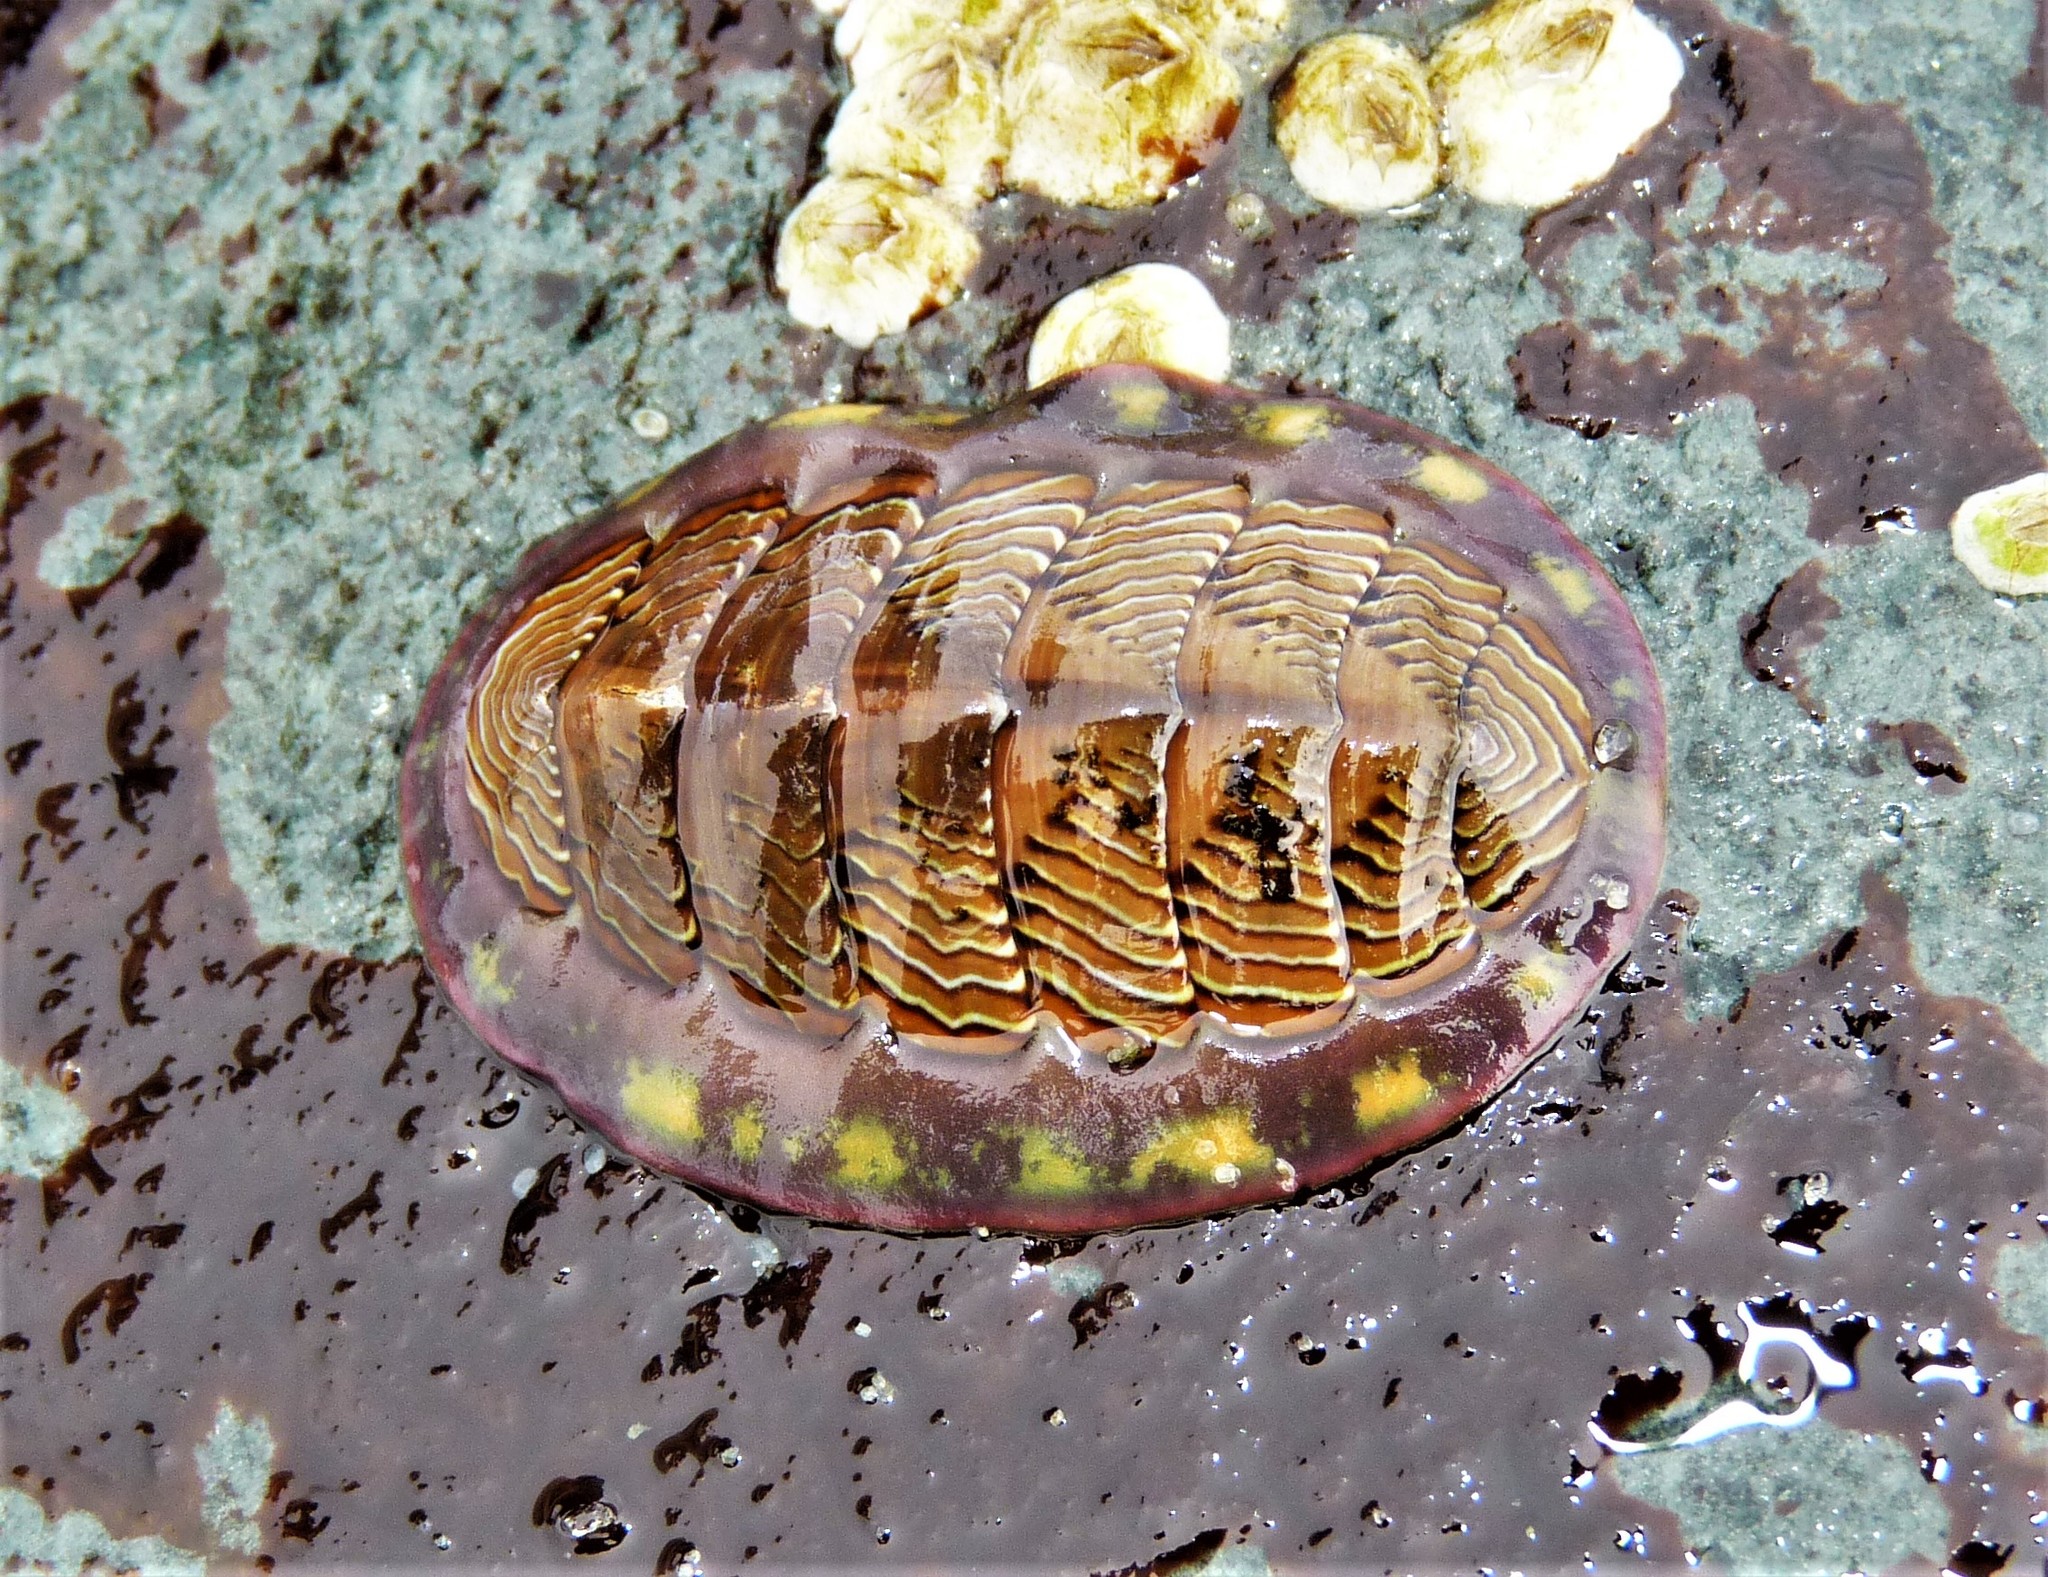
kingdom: Animalia
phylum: Mollusca
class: Polyplacophora
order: Chitonida
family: Tonicellidae
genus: Tonicella
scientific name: Tonicella lineata
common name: Lined chiton
